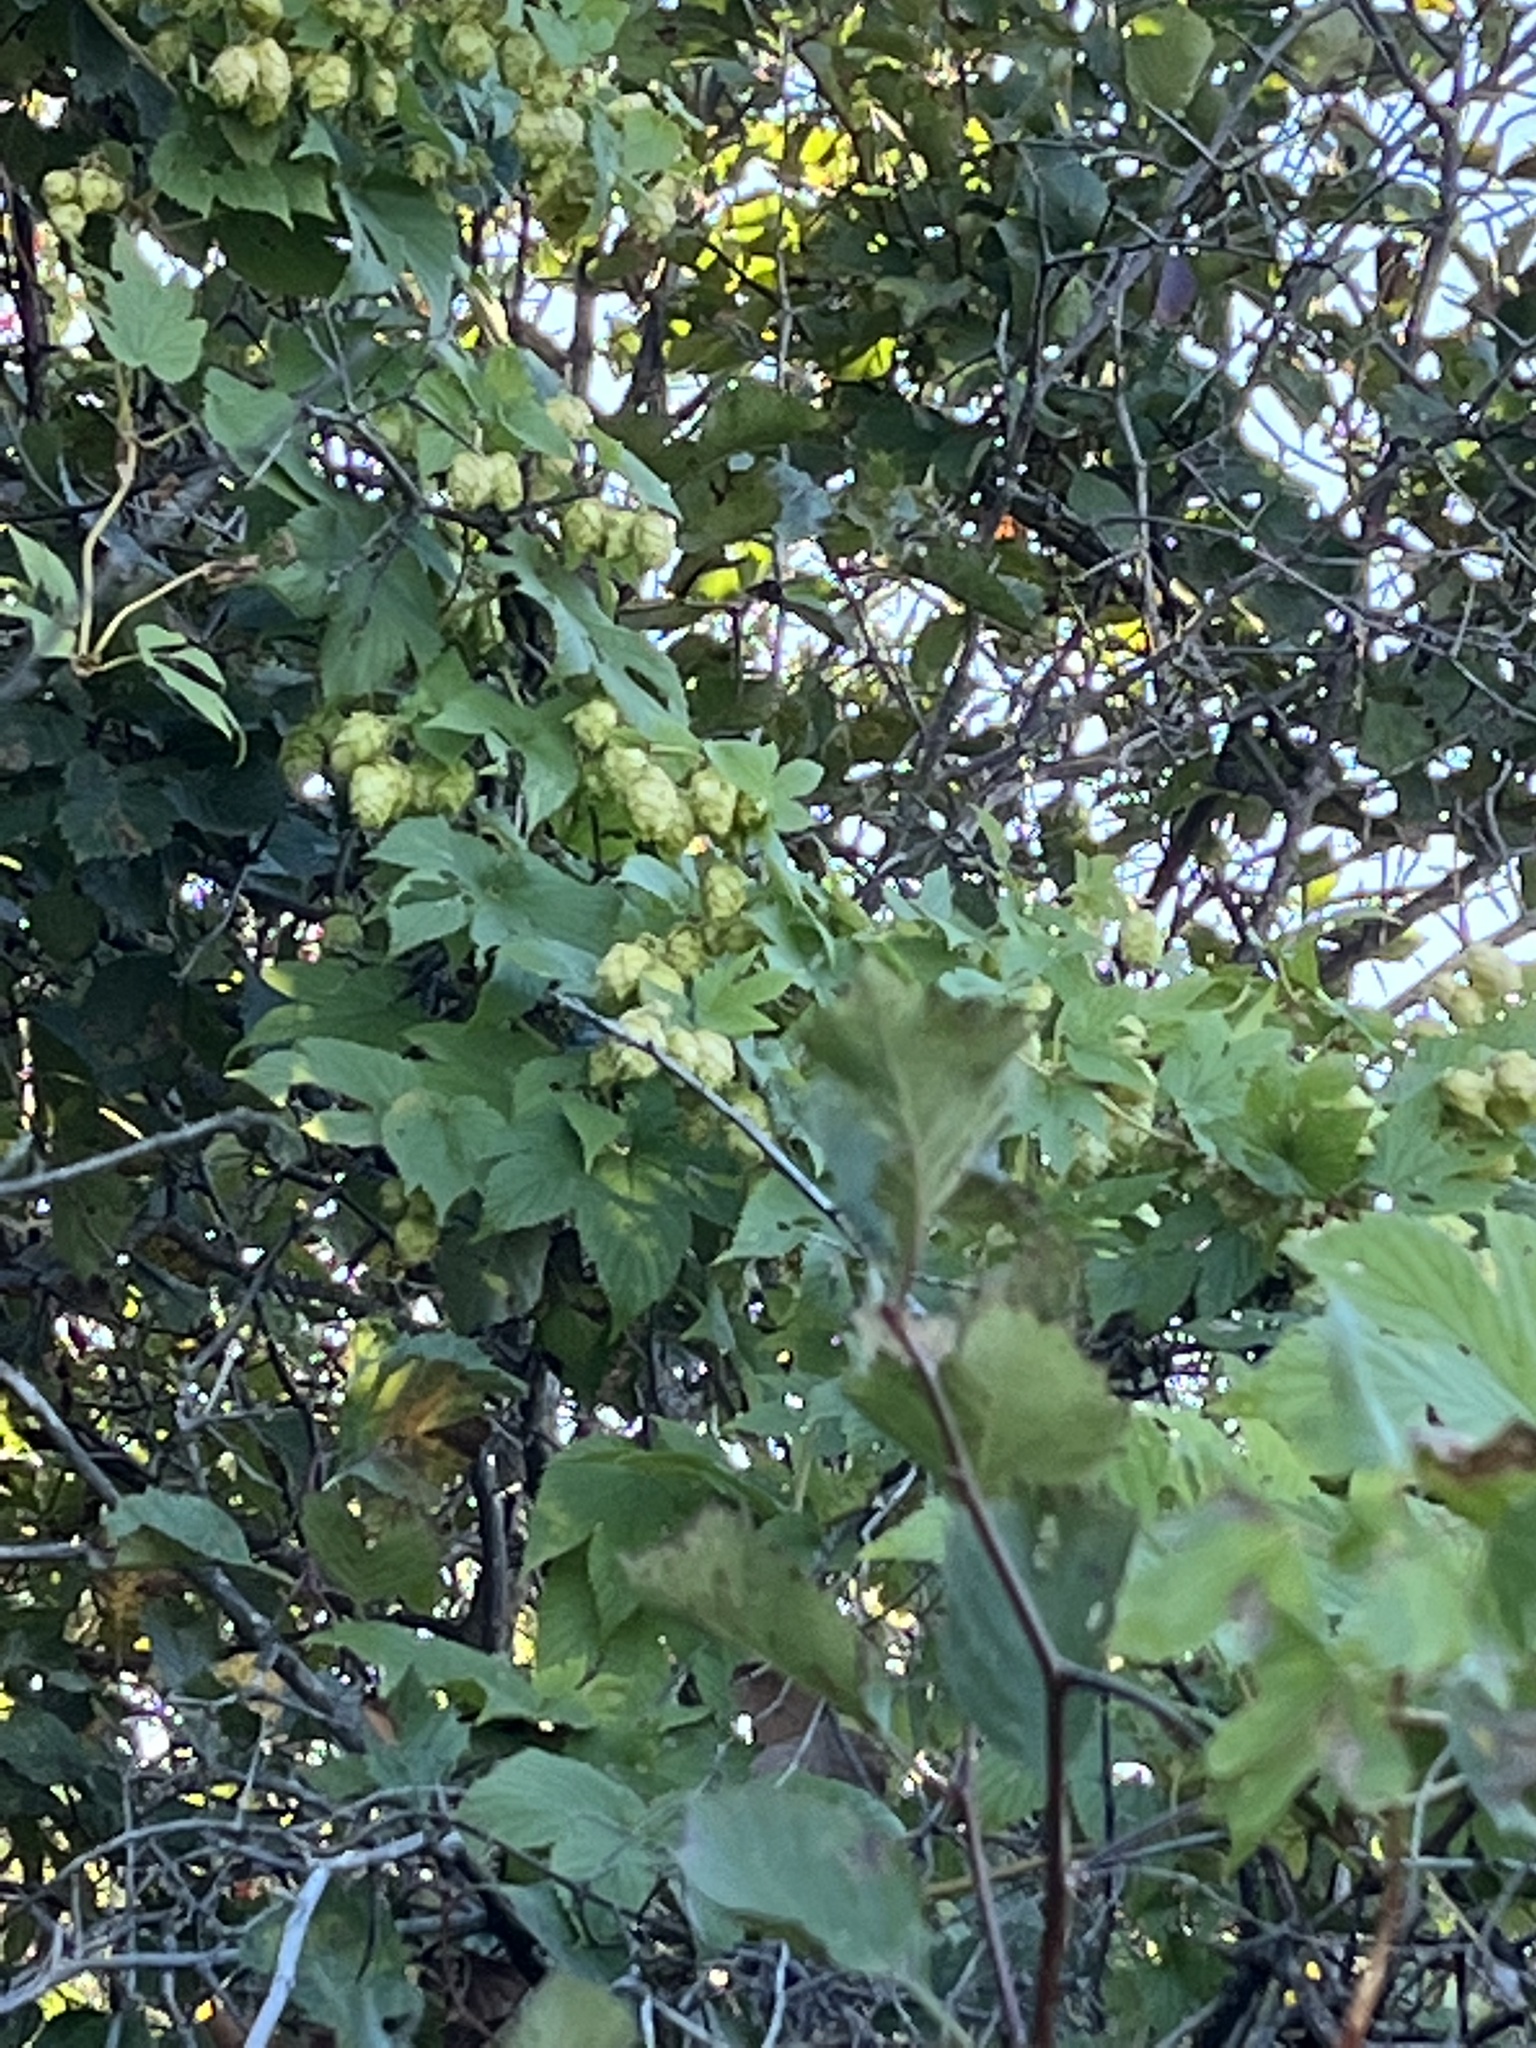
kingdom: Plantae
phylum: Tracheophyta
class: Magnoliopsida
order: Rosales
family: Cannabaceae
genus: Humulus
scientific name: Humulus lupulus
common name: Hop
